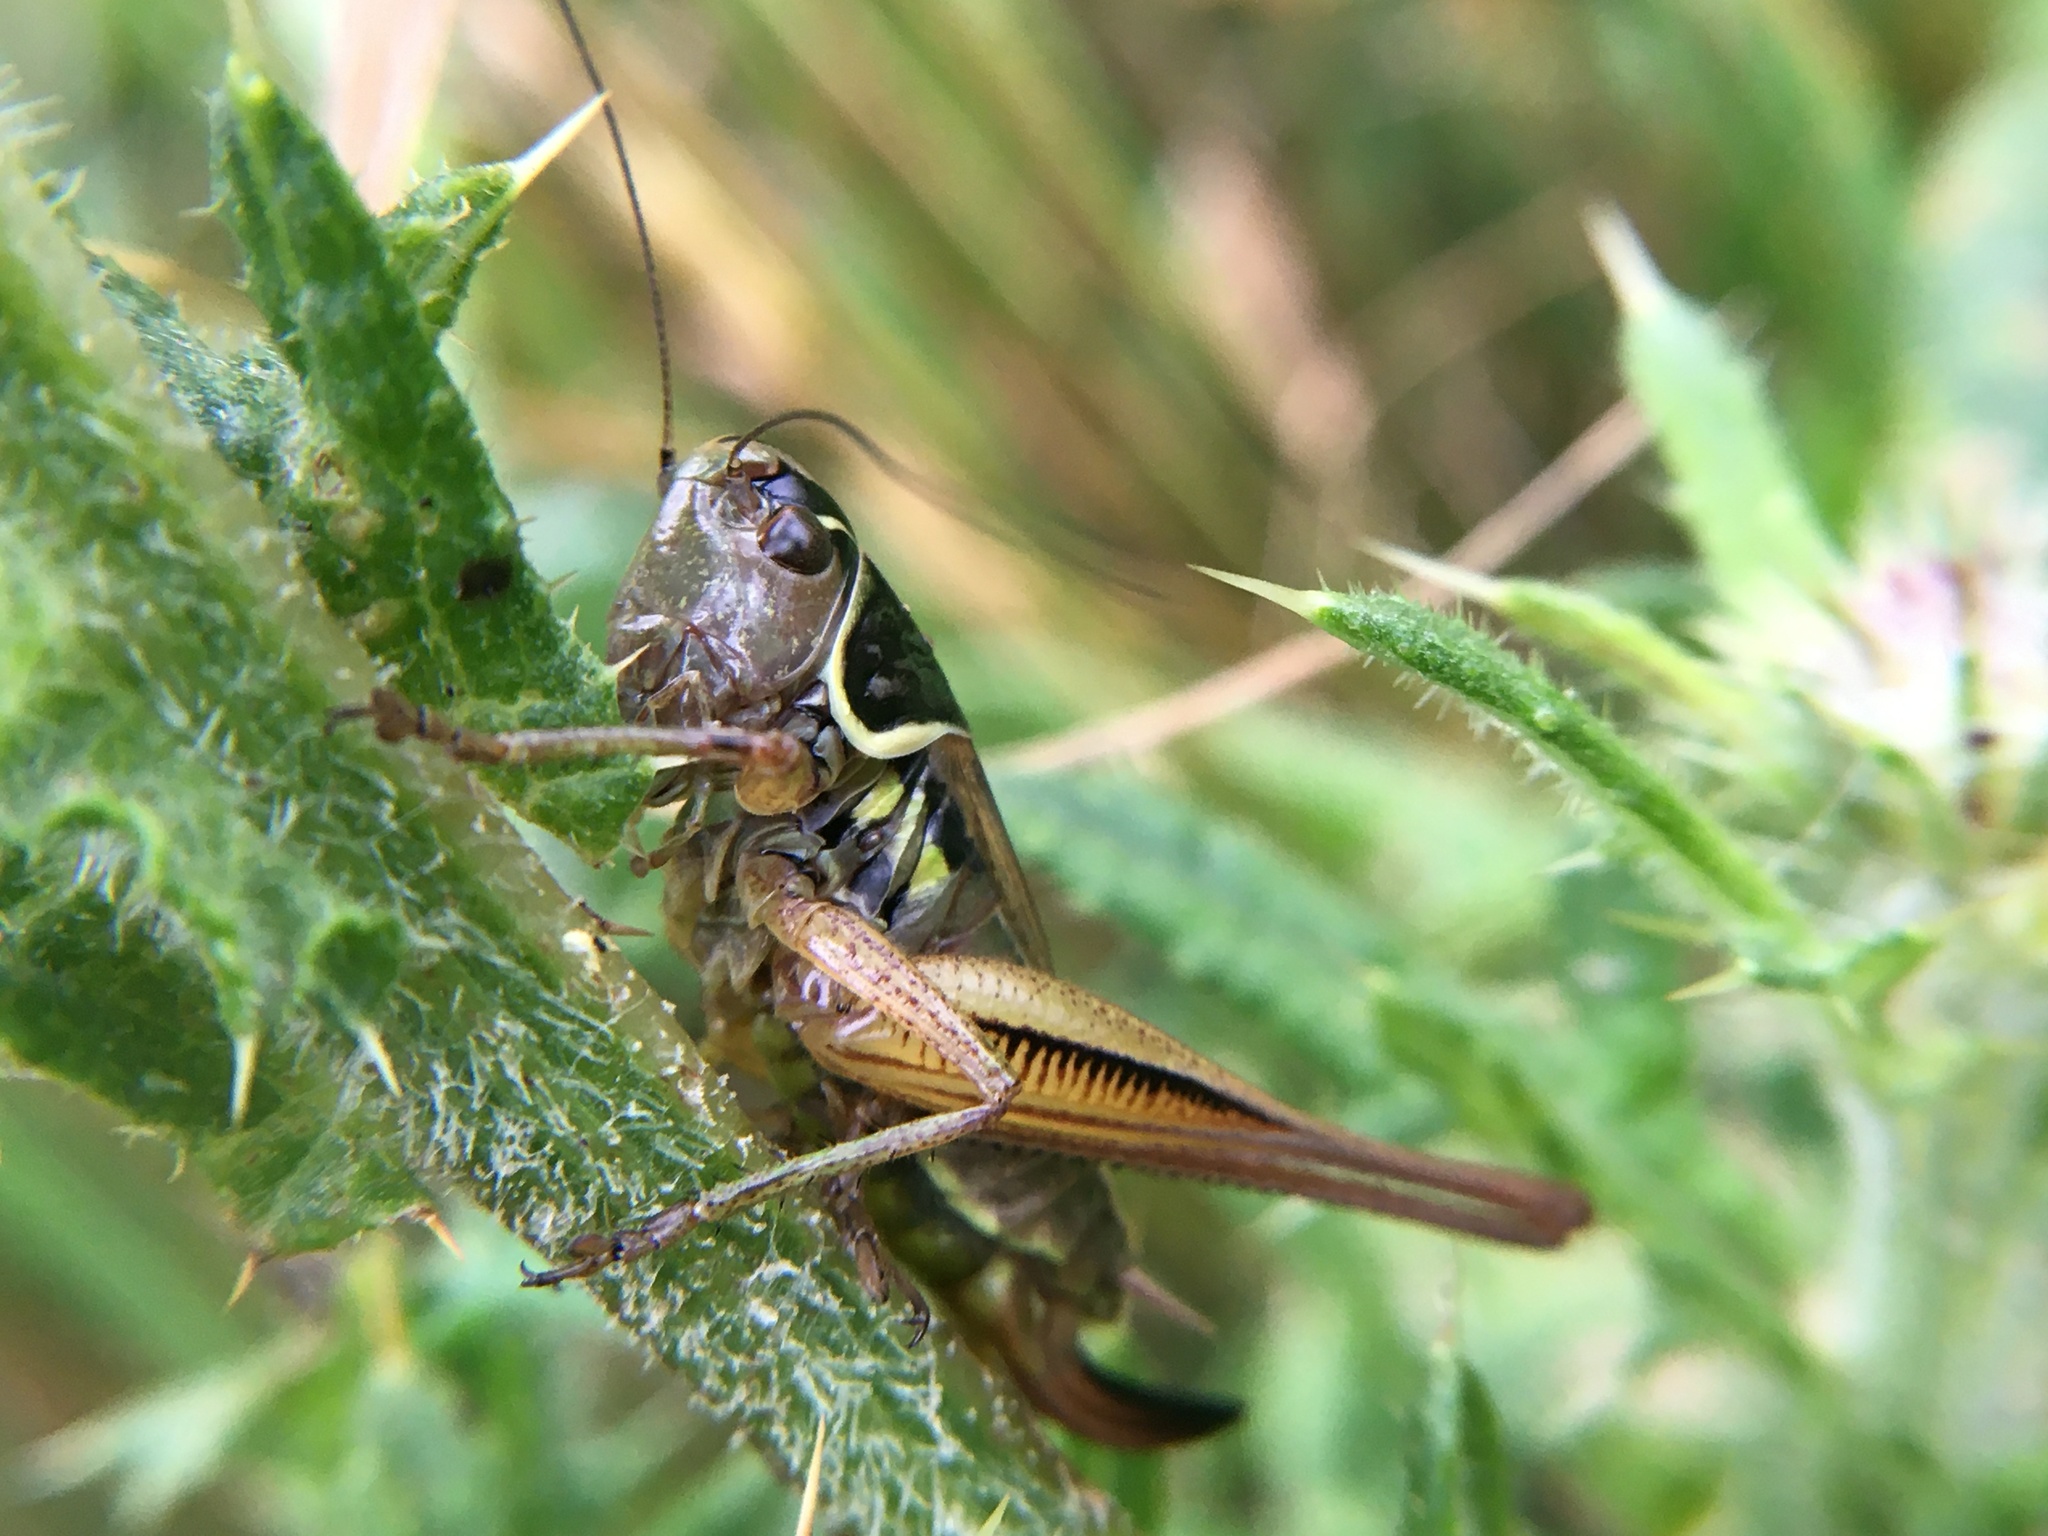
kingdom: Animalia
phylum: Arthropoda
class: Insecta
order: Orthoptera
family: Tettigoniidae
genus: Roeseliana
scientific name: Roeseliana roeselii
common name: Roesel's bush cricket
